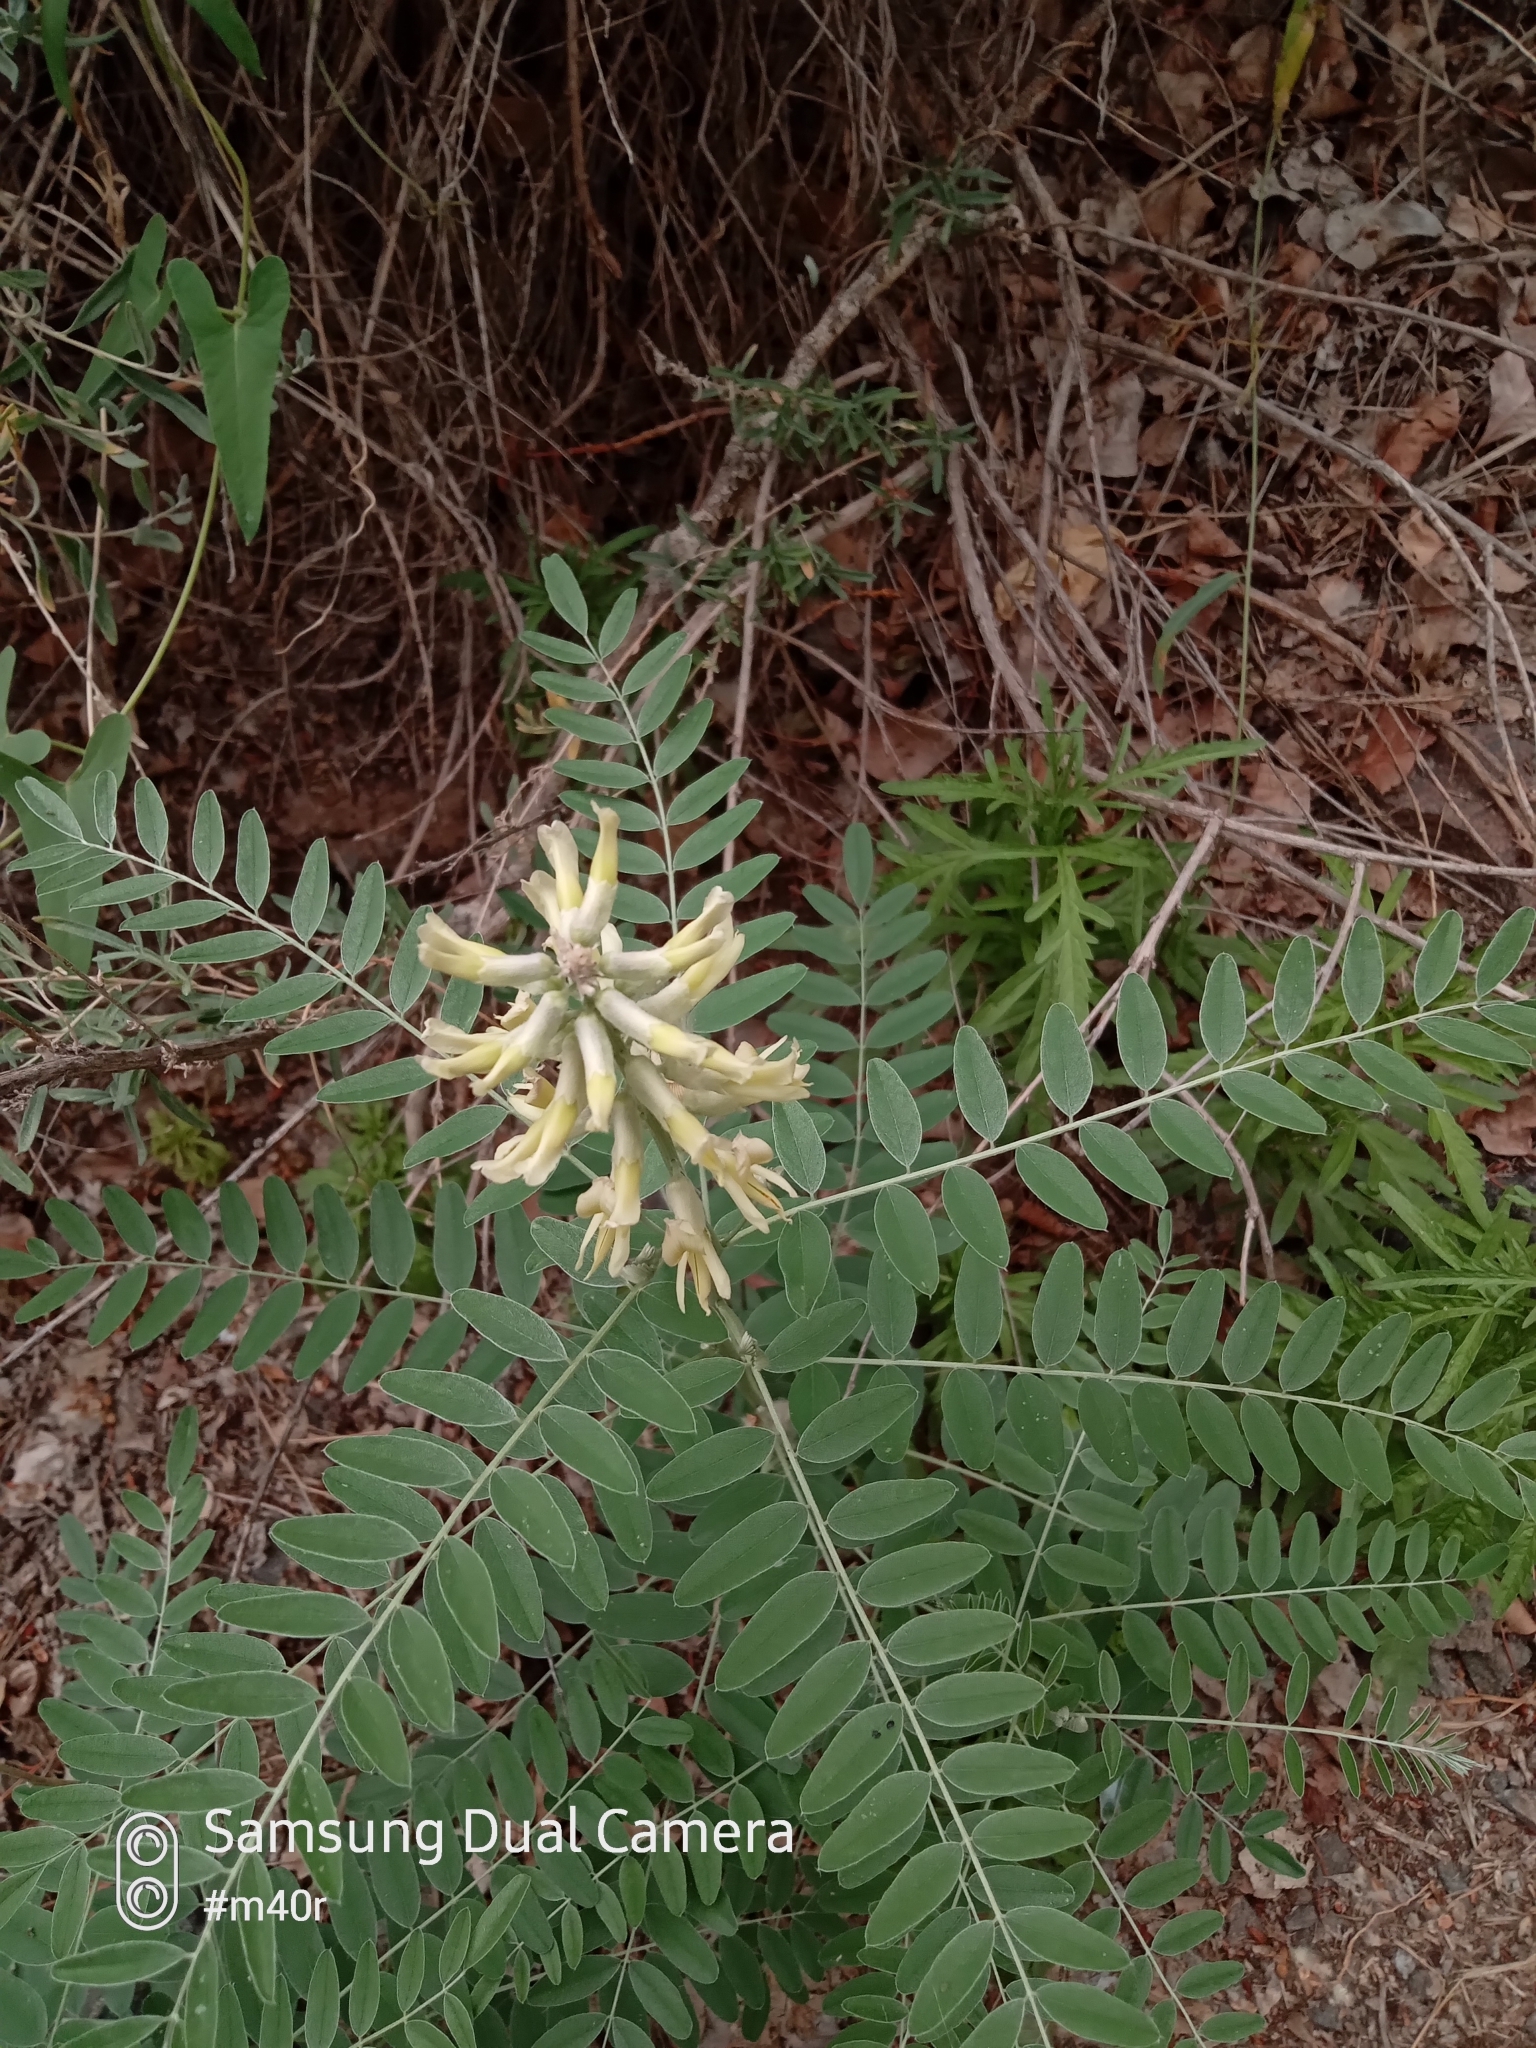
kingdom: Plantae
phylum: Tracheophyta
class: Magnoliopsida
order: Fabales
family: Fabaceae
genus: Sophora
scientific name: Sophora alopecuroides
